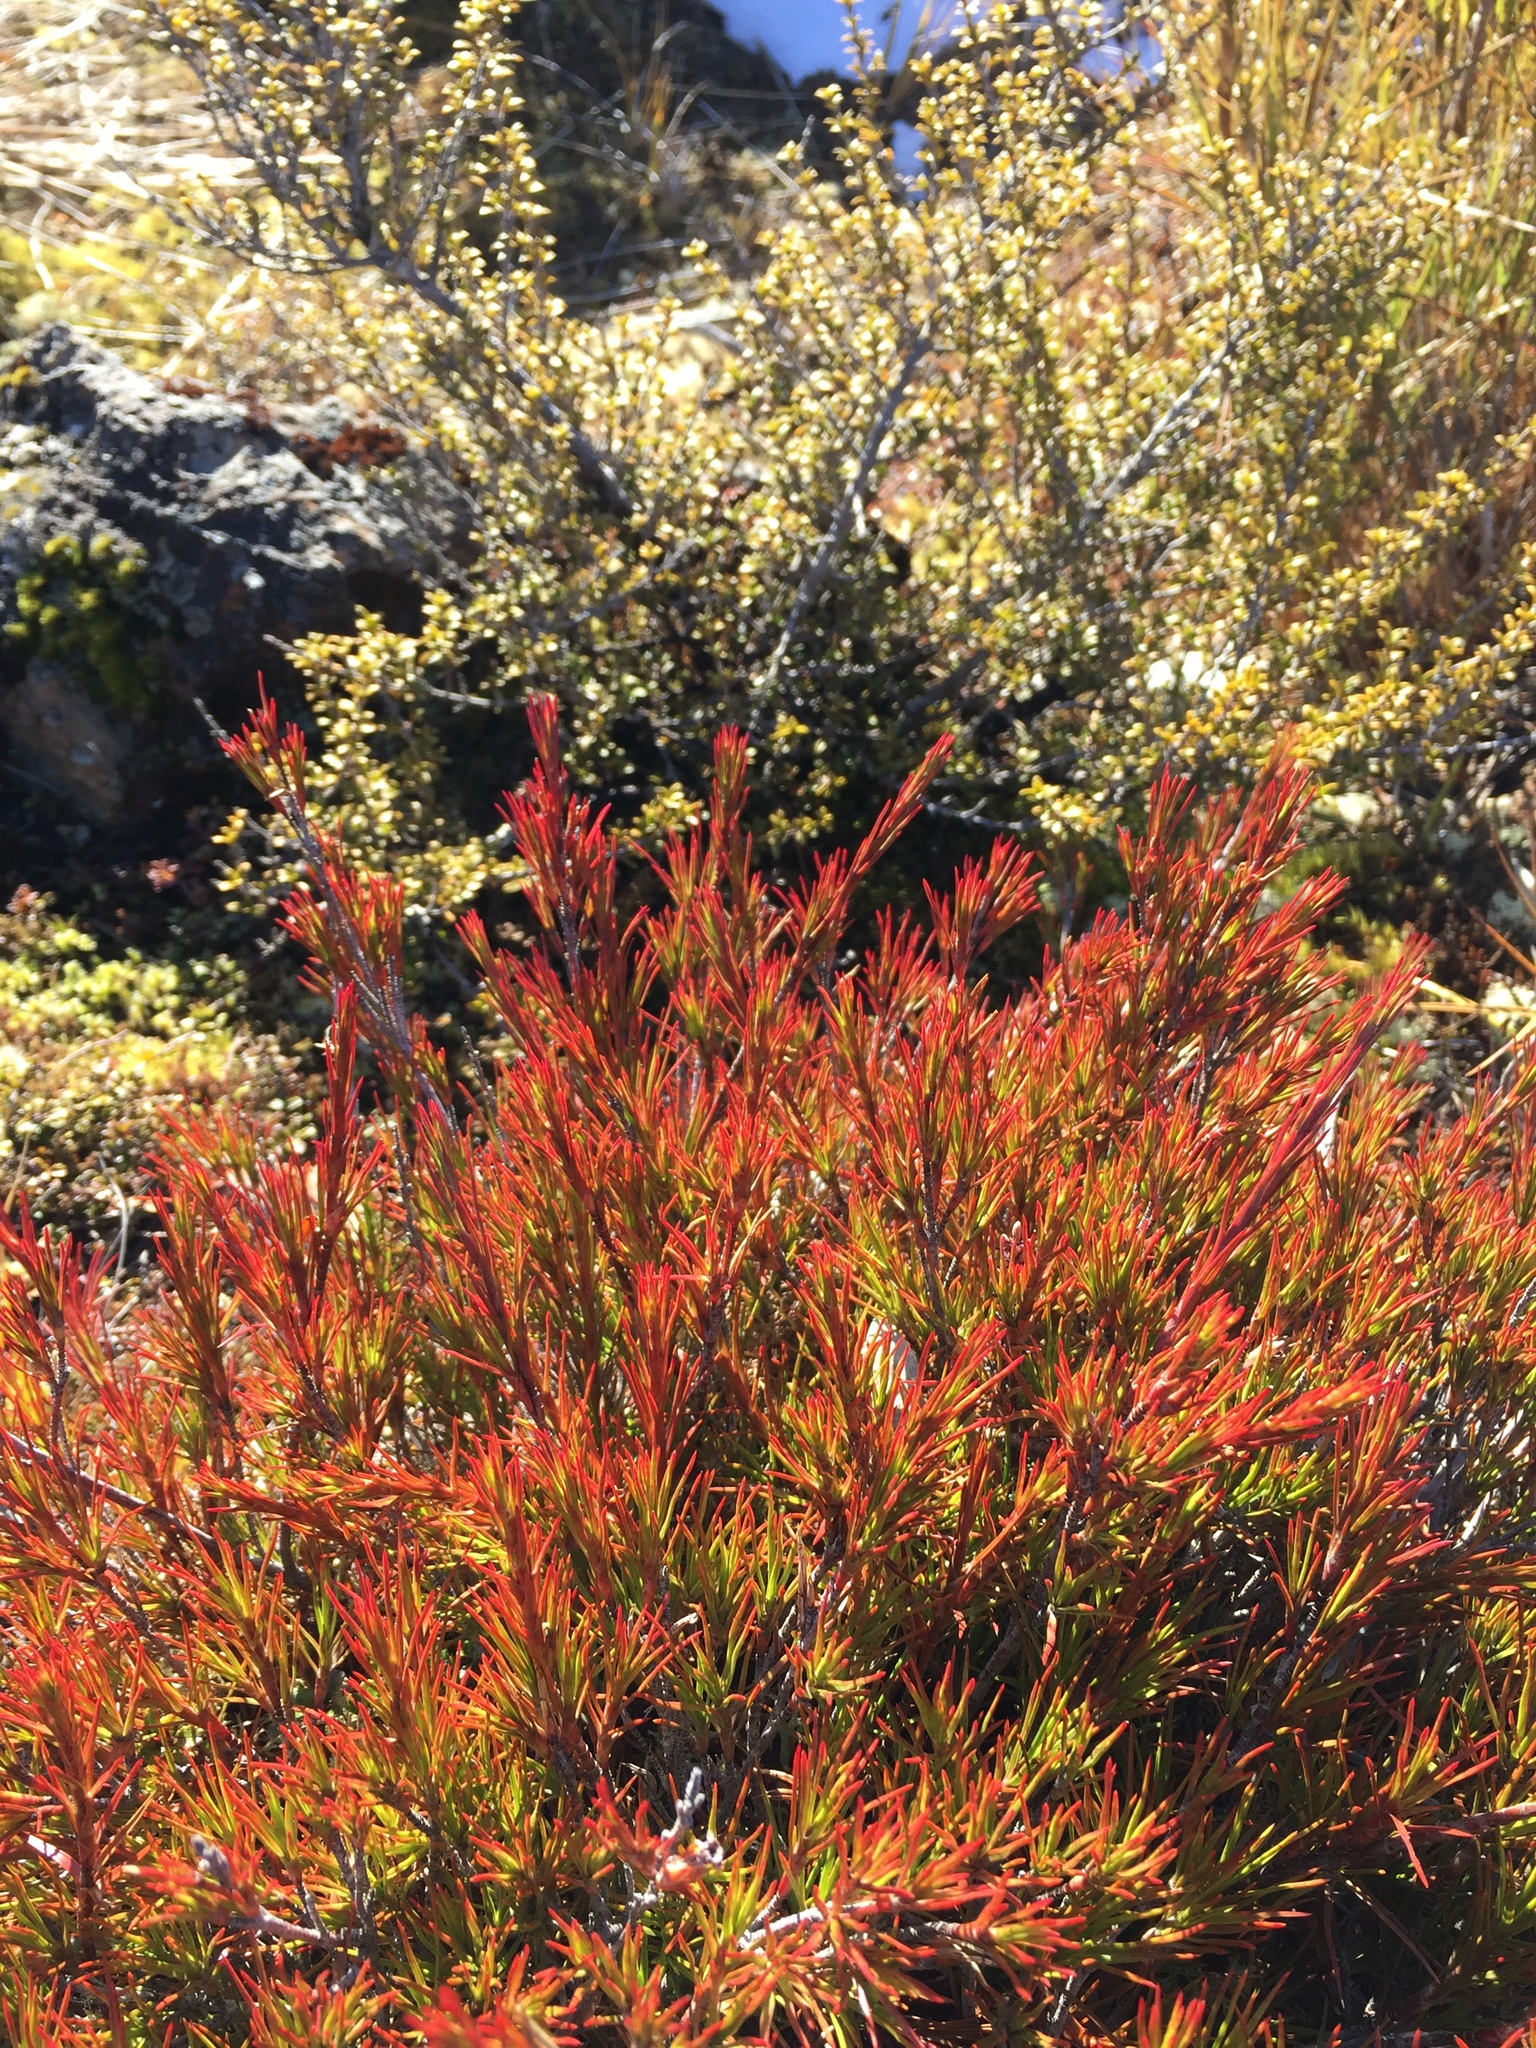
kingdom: Plantae
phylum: Tracheophyta
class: Magnoliopsida
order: Ericales
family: Ericaceae
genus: Dracophyllum
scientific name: Dracophyllum rosmarinifolium
